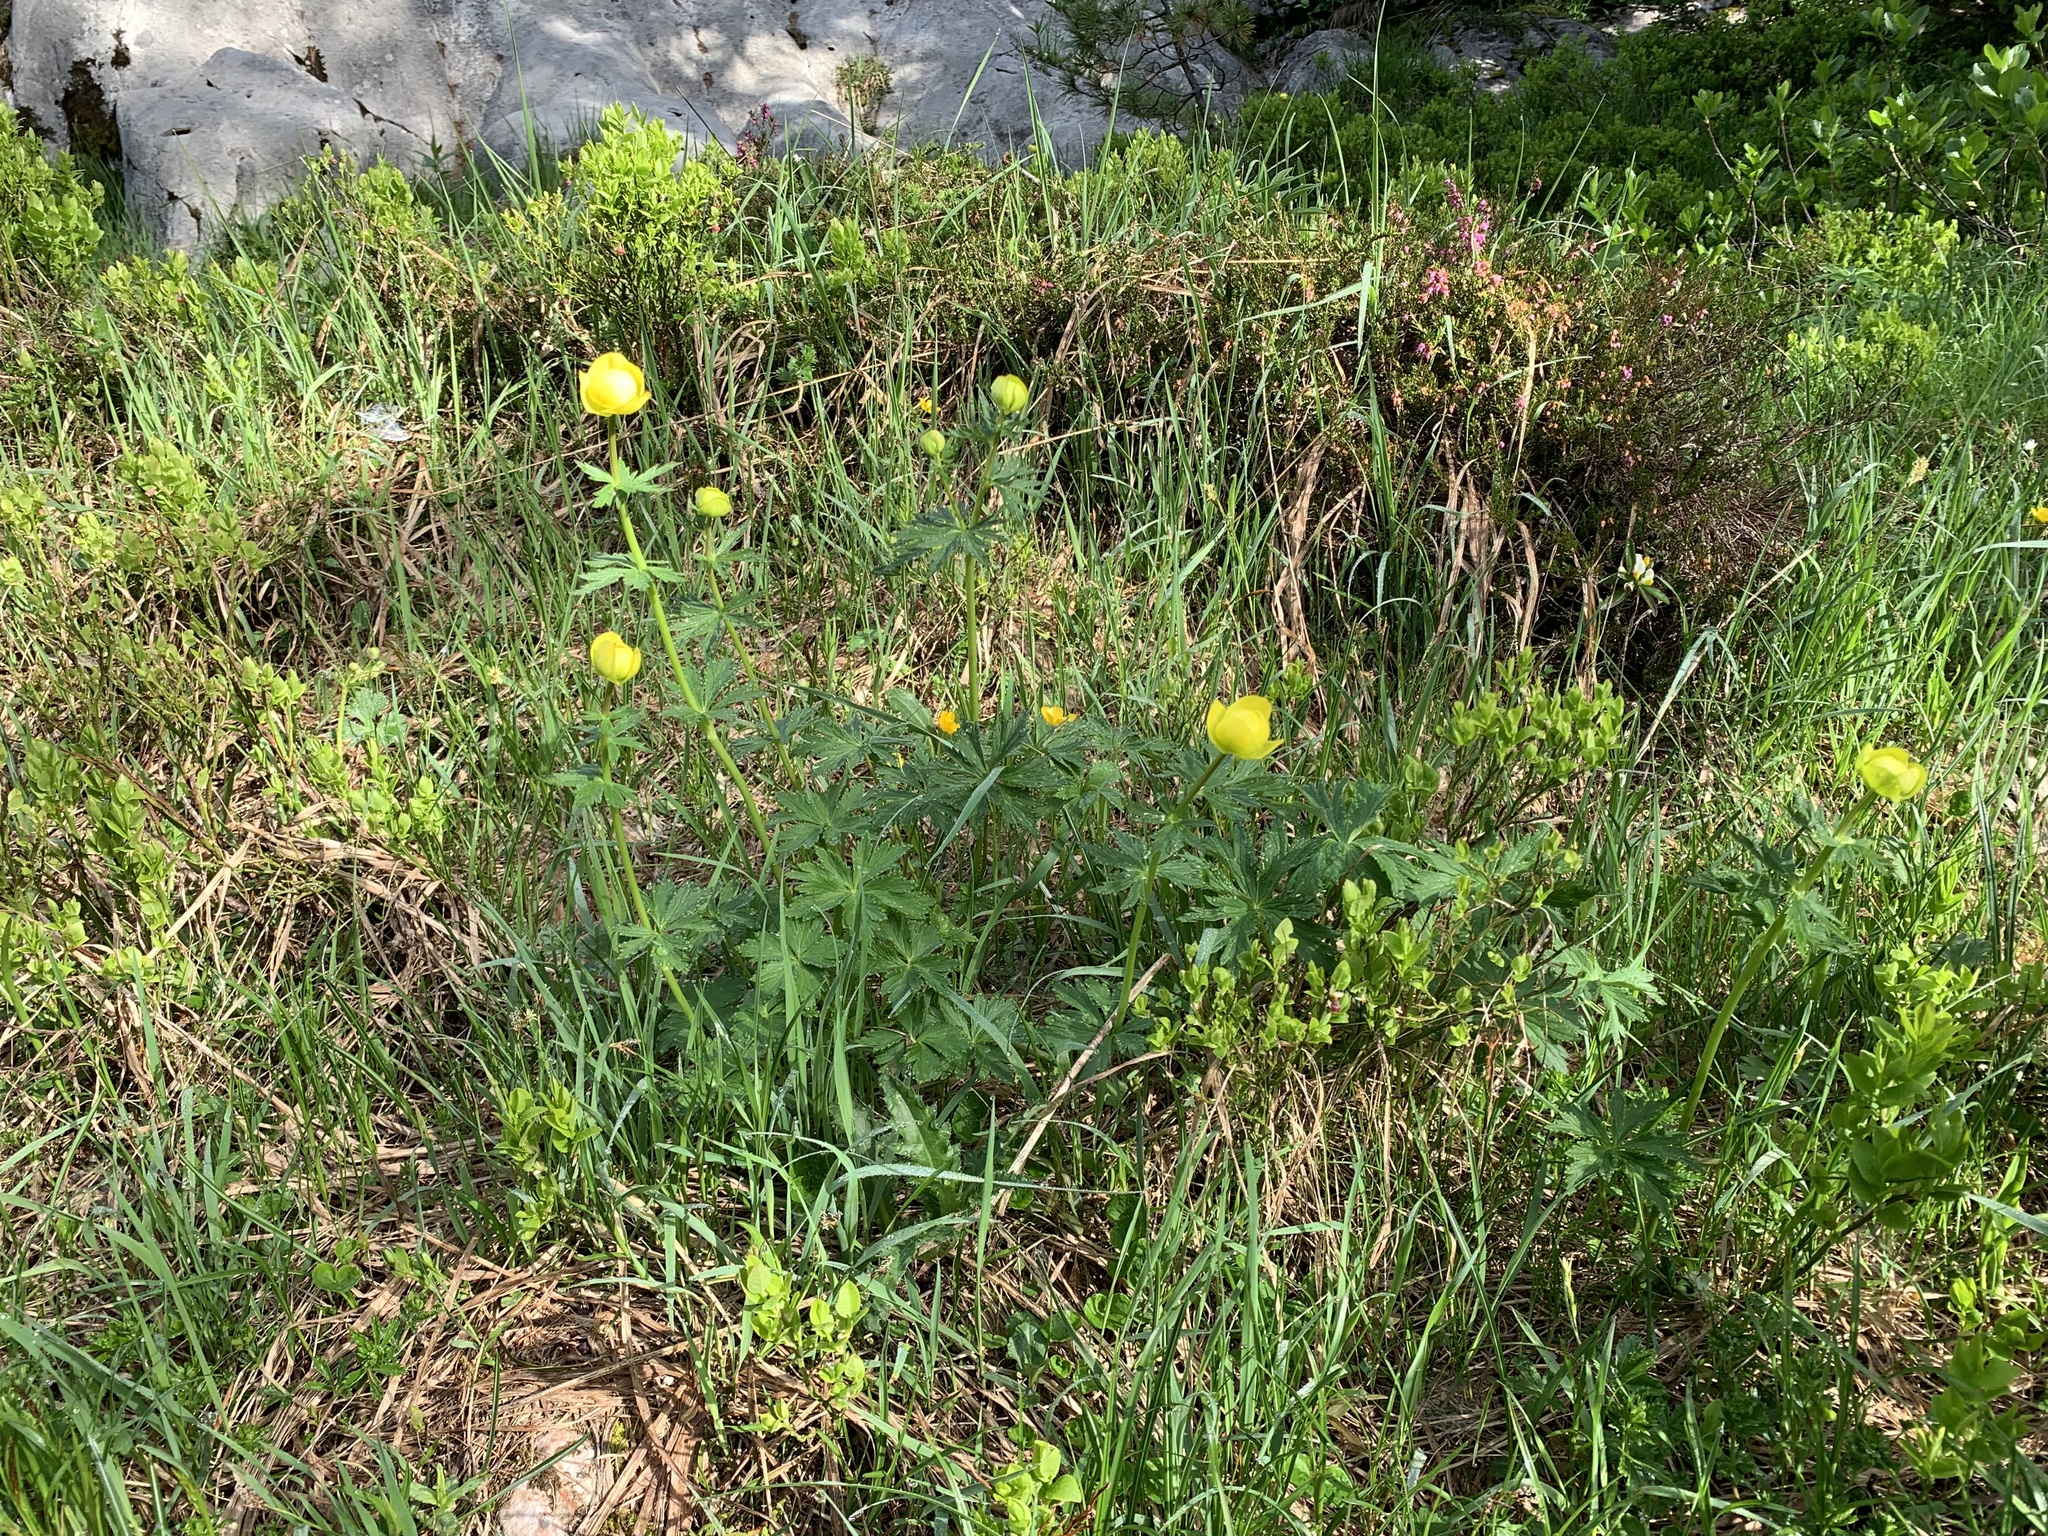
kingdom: Plantae
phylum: Tracheophyta
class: Magnoliopsida
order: Ranunculales
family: Ranunculaceae
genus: Trollius
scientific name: Trollius europaeus
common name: European globeflower
